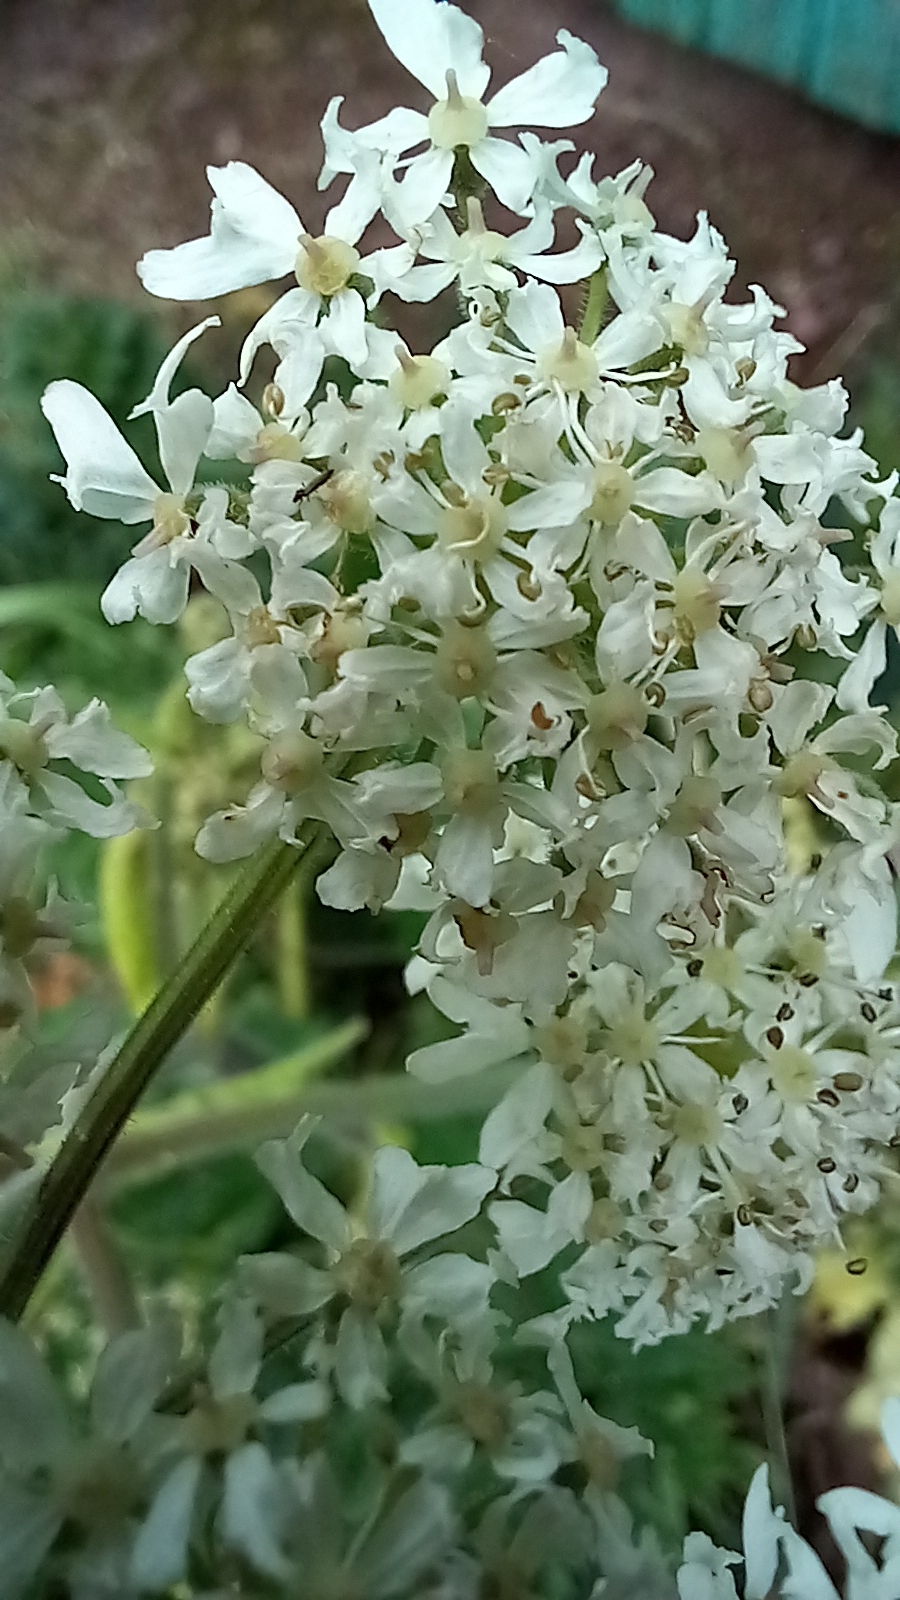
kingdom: Plantae
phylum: Tracheophyta
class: Magnoliopsida
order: Apiales
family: Apiaceae
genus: Heracleum
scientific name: Heracleum sphondylium
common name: Hogweed
